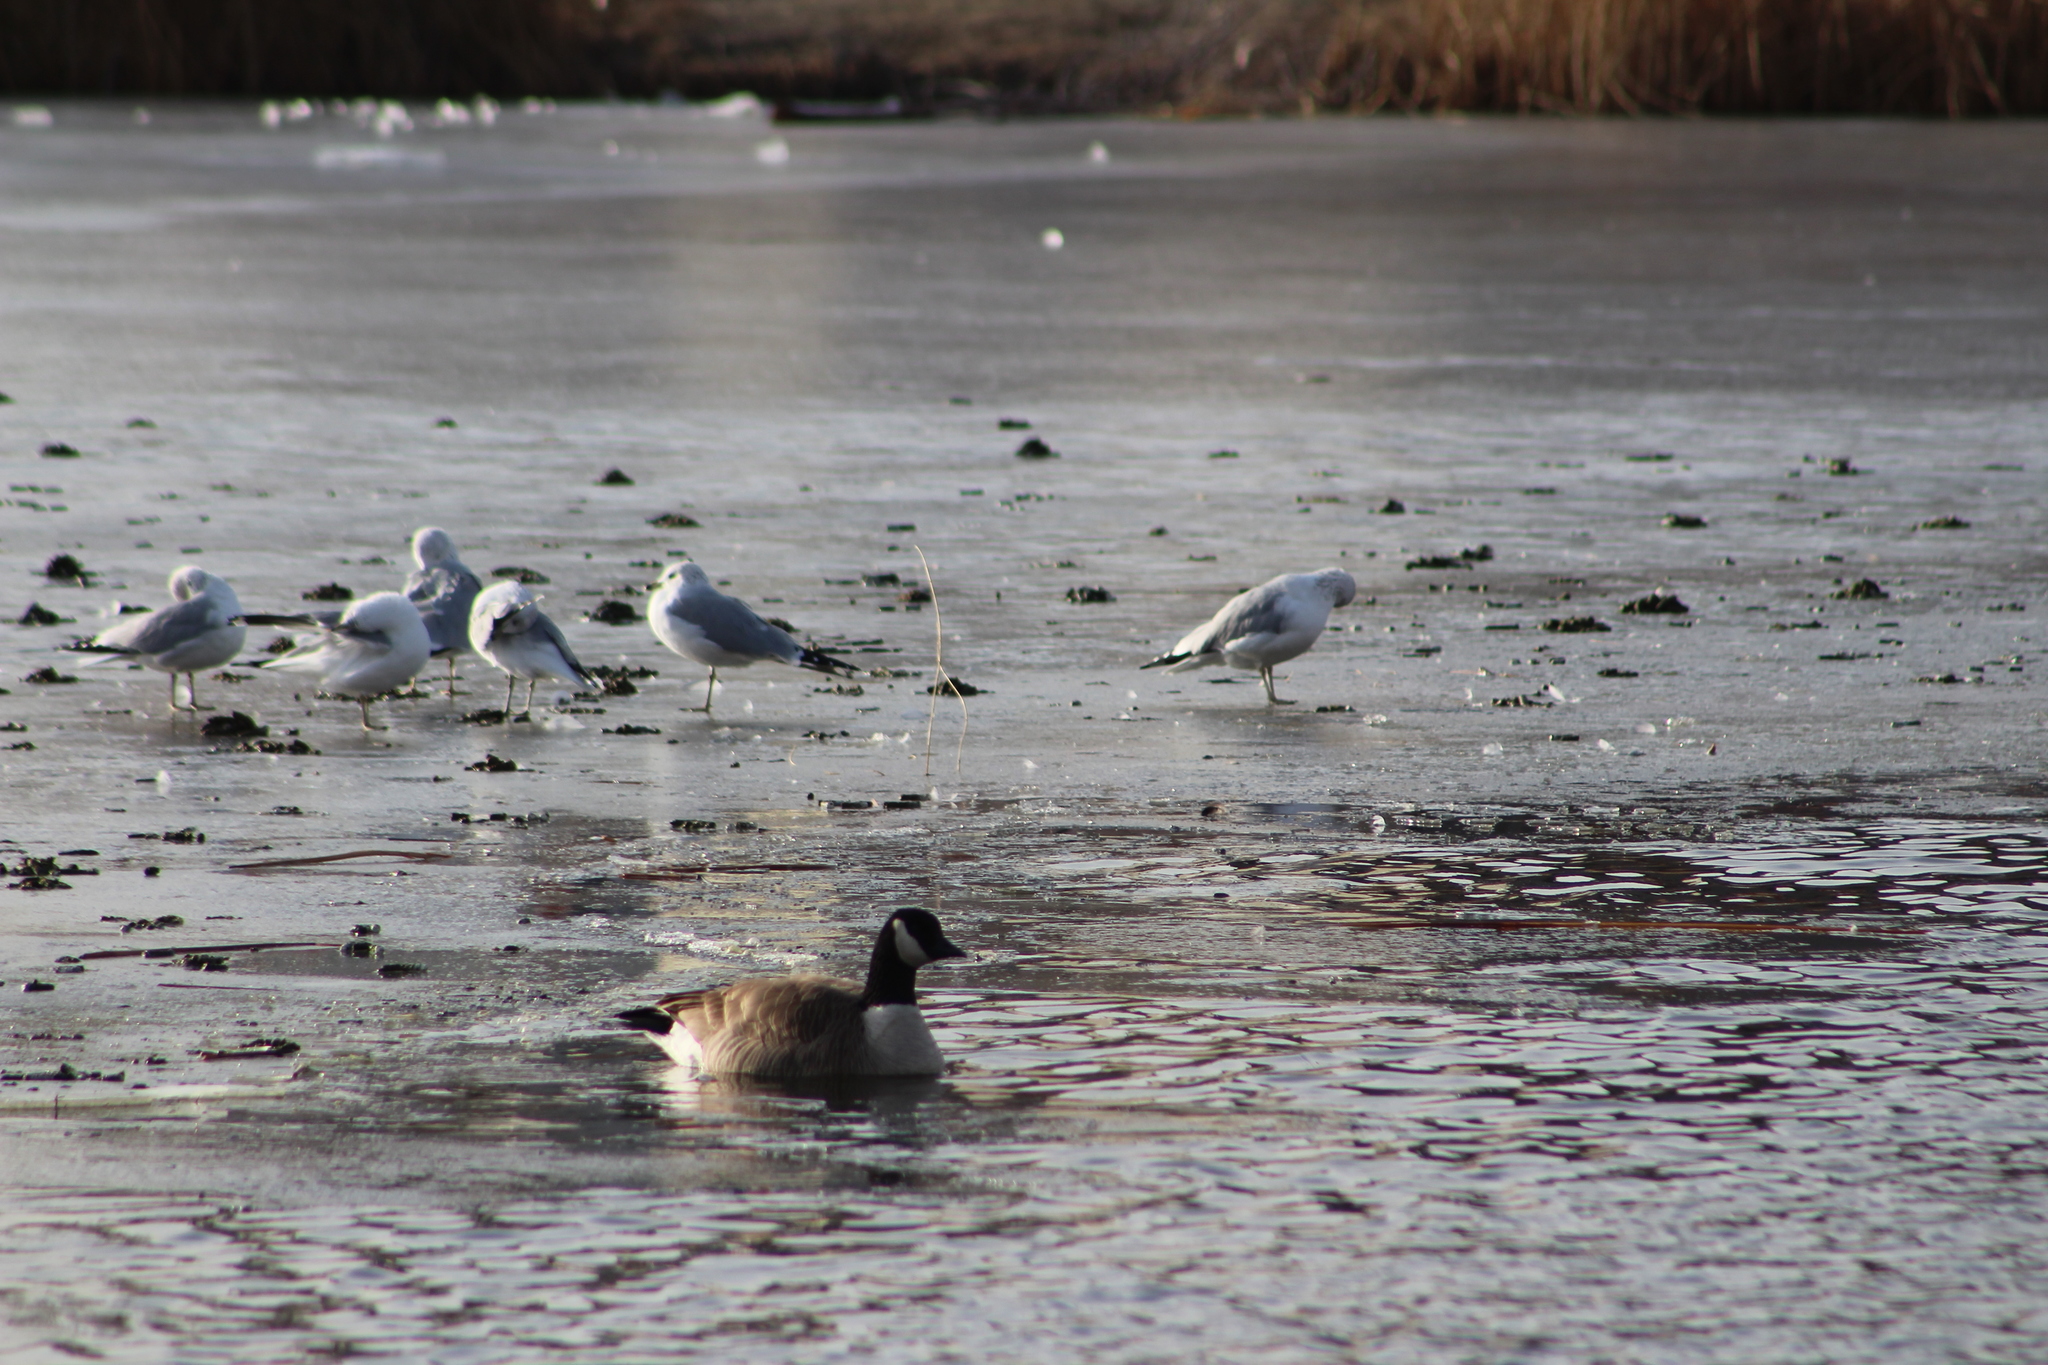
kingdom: Animalia
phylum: Chordata
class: Aves
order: Anseriformes
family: Anatidae
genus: Branta
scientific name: Branta hutchinsii
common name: Cackling goose
